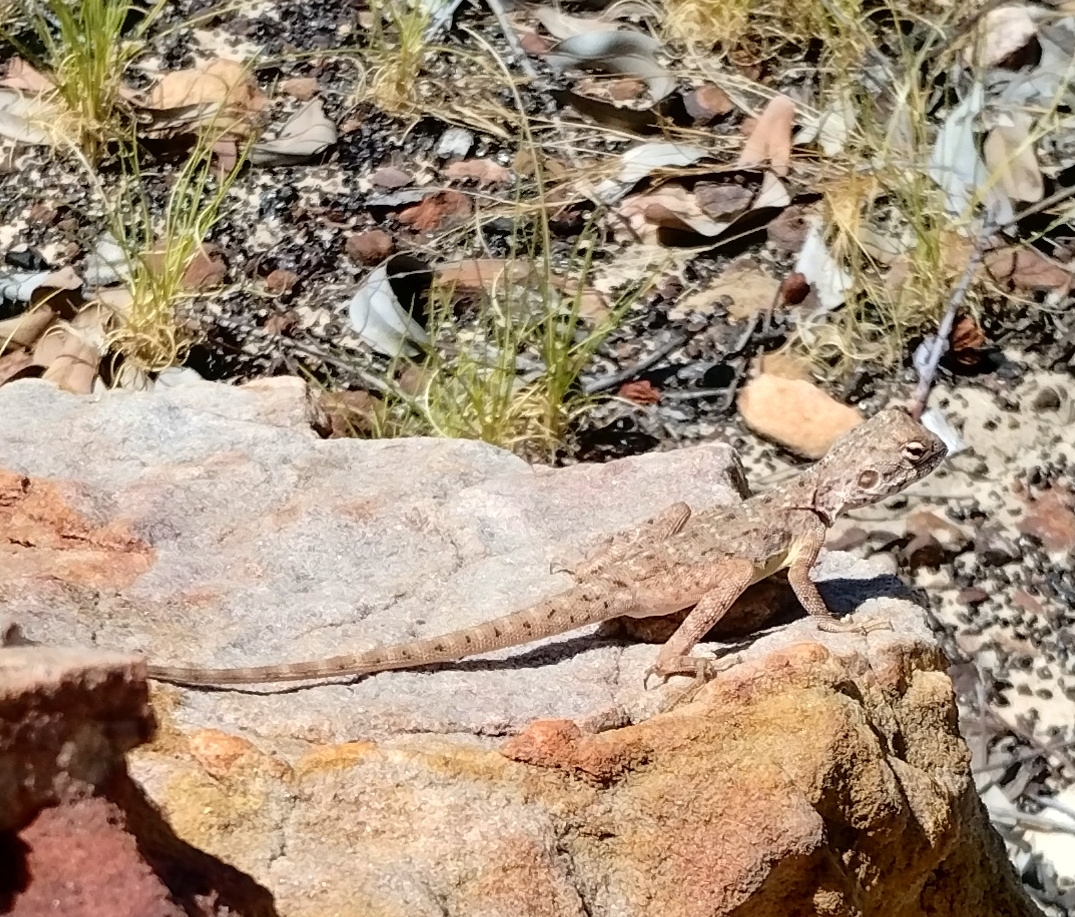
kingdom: Animalia
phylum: Chordata
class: Squamata
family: Agamidae
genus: Ctenophorus
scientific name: Ctenophorus slateri
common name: Slater’s dragon
